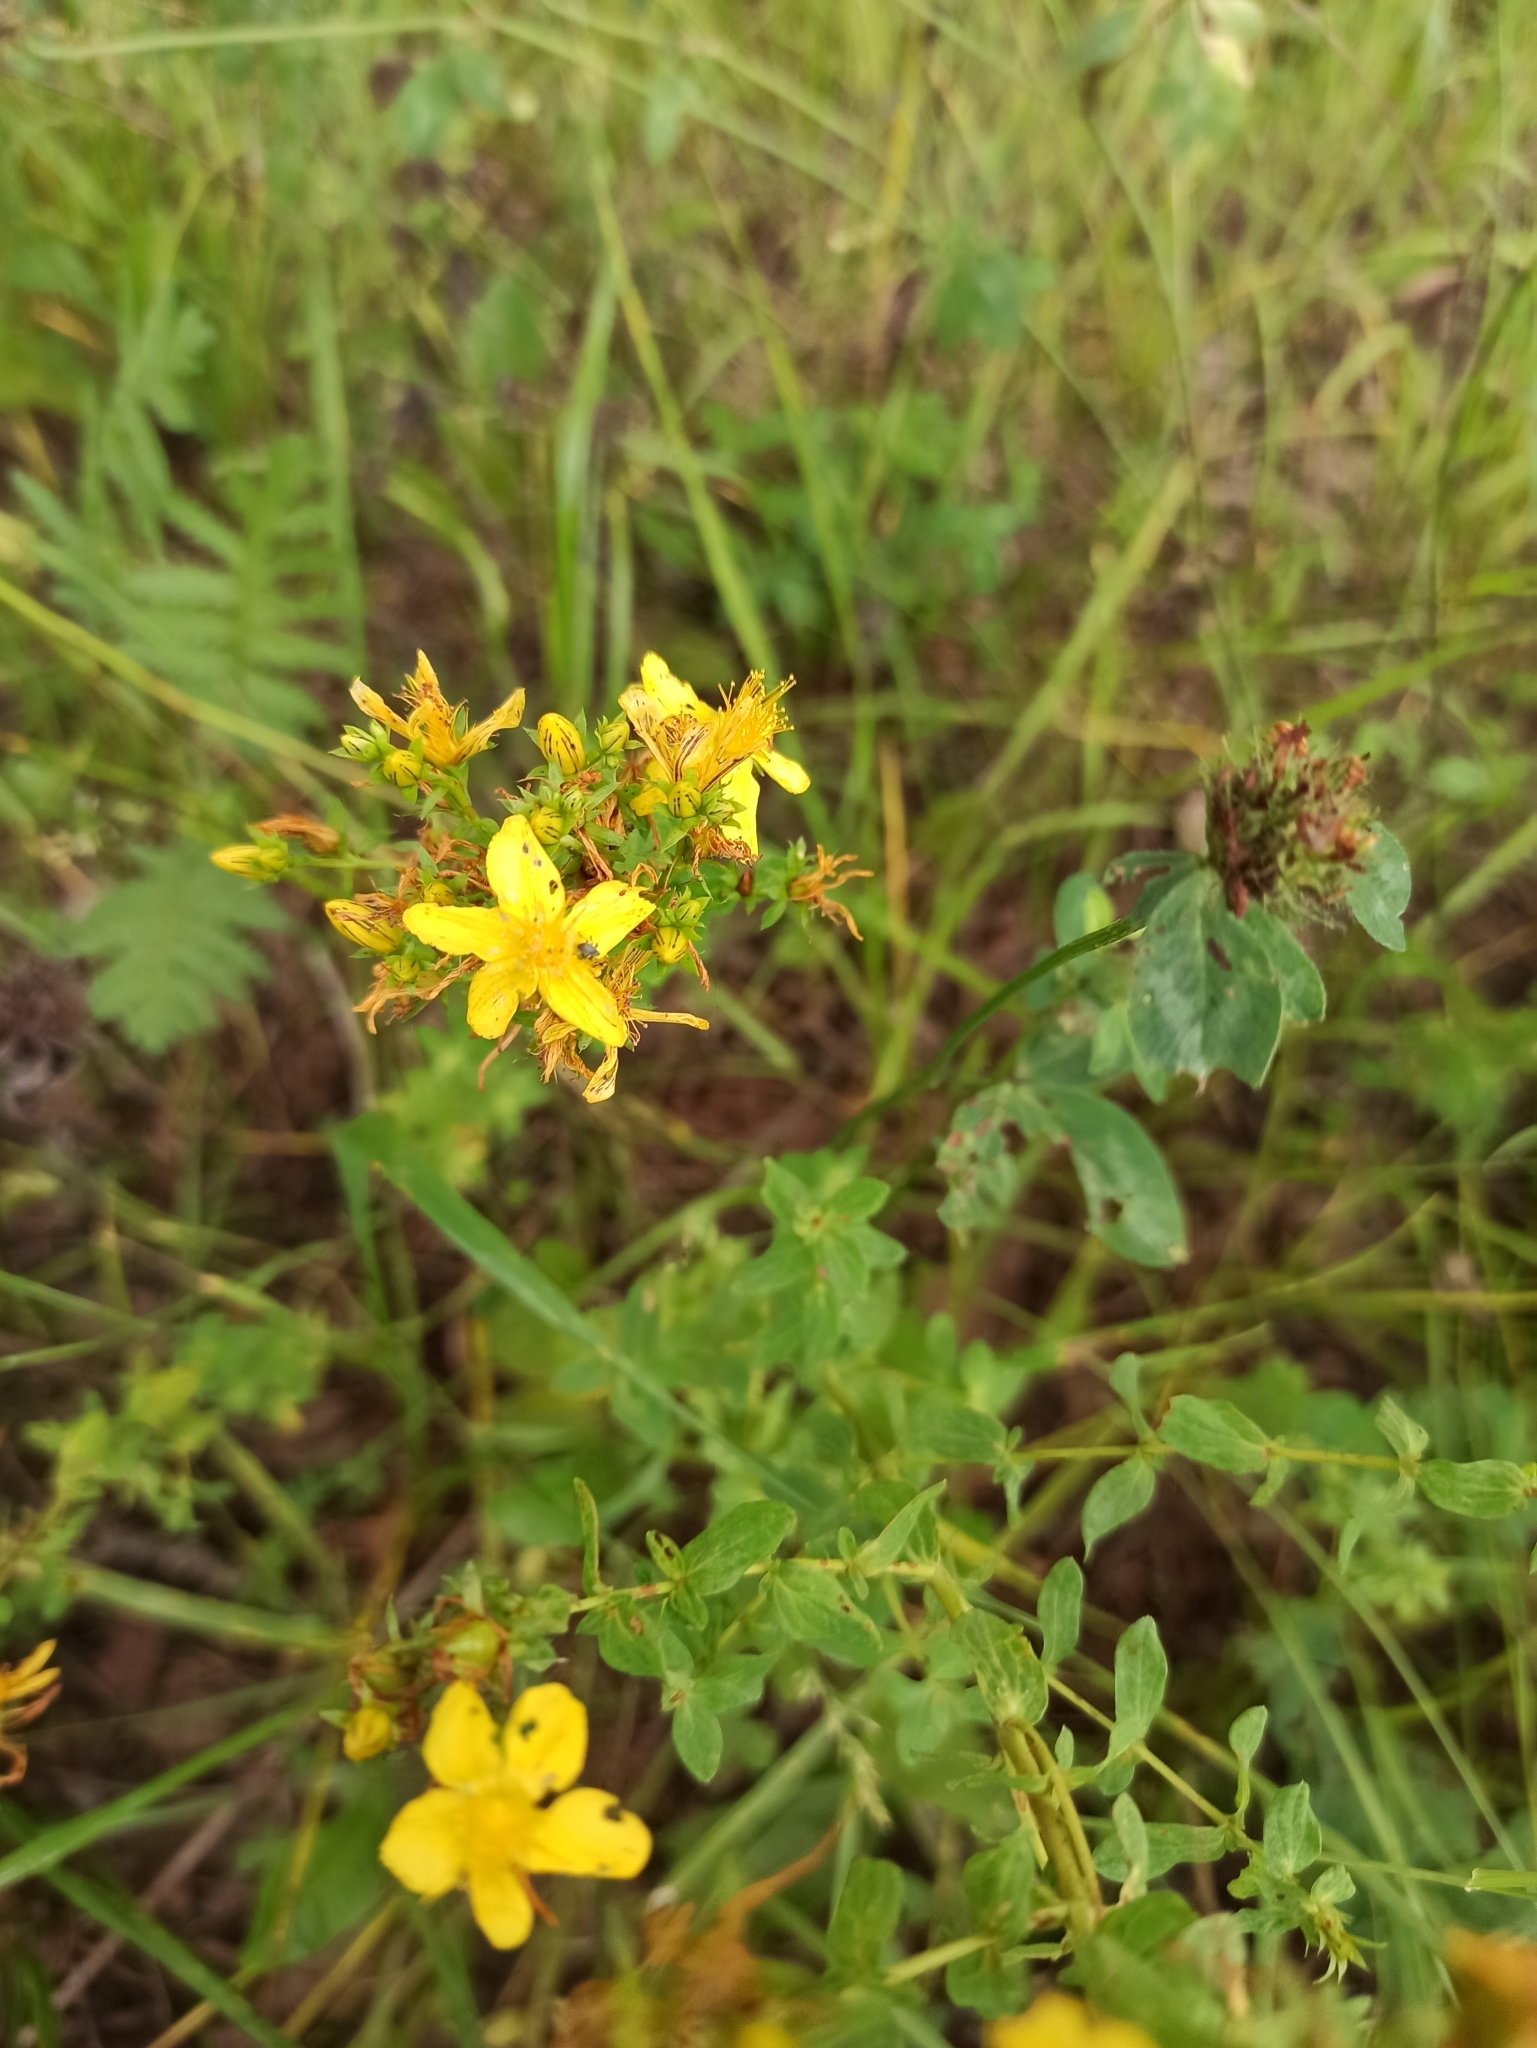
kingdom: Plantae
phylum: Tracheophyta
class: Magnoliopsida
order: Malpighiales
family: Hypericaceae
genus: Hypericum
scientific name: Hypericum perforatum
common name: Common st. johnswort
